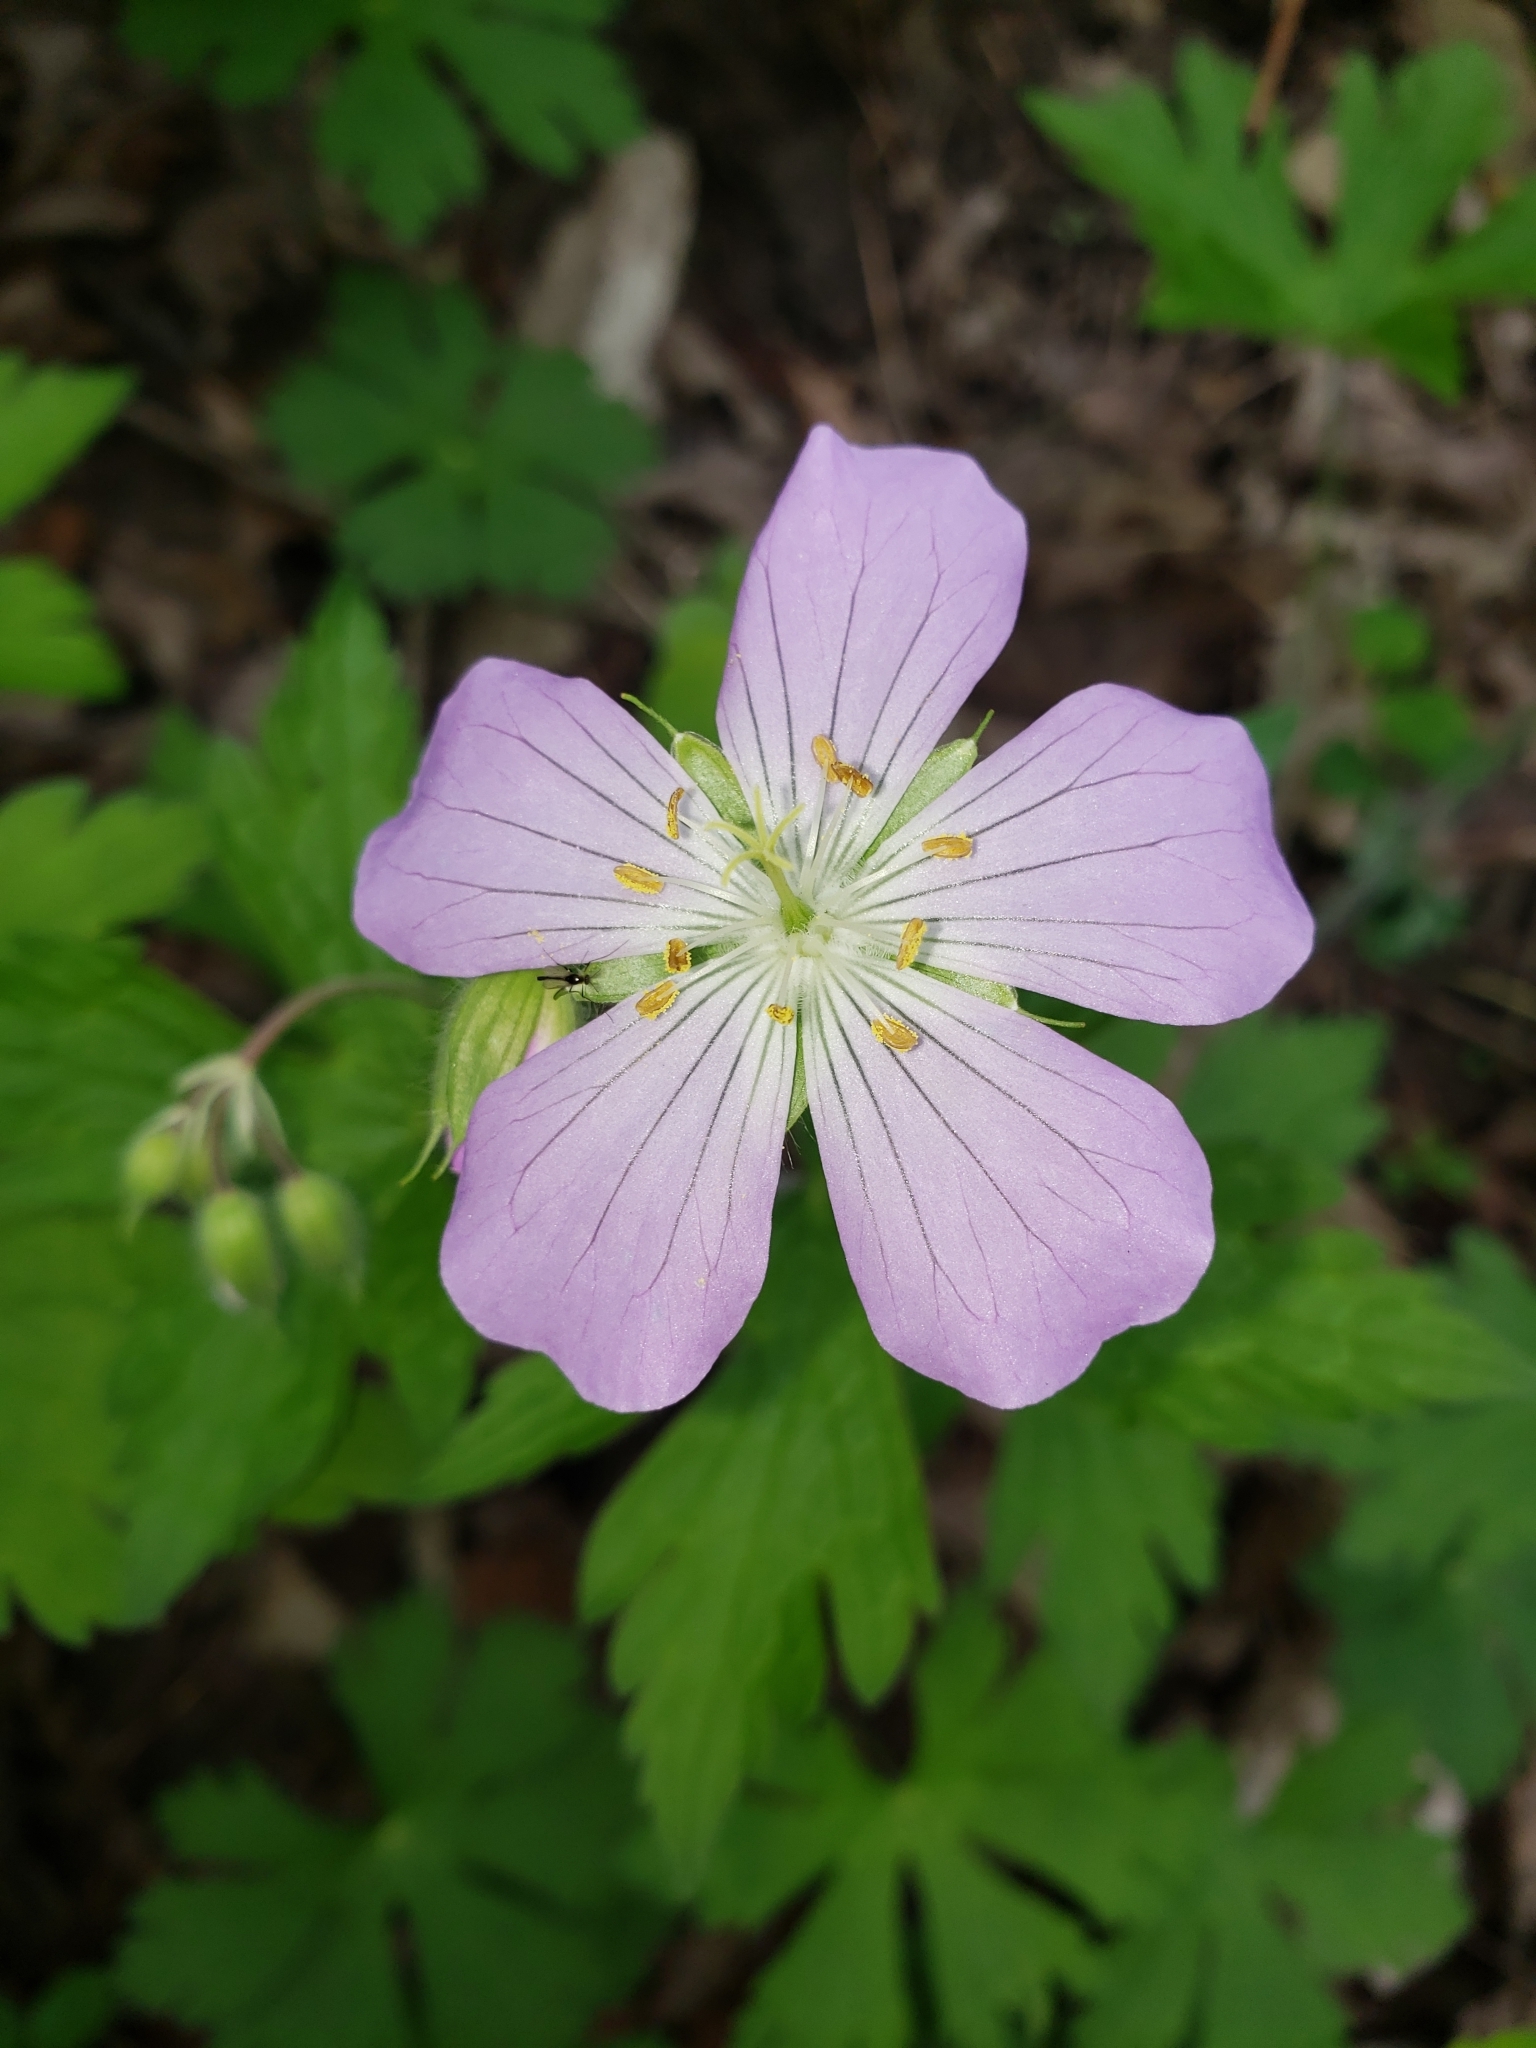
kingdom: Plantae
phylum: Tracheophyta
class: Magnoliopsida
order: Geraniales
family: Geraniaceae
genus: Geranium
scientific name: Geranium maculatum
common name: Spotted geranium
